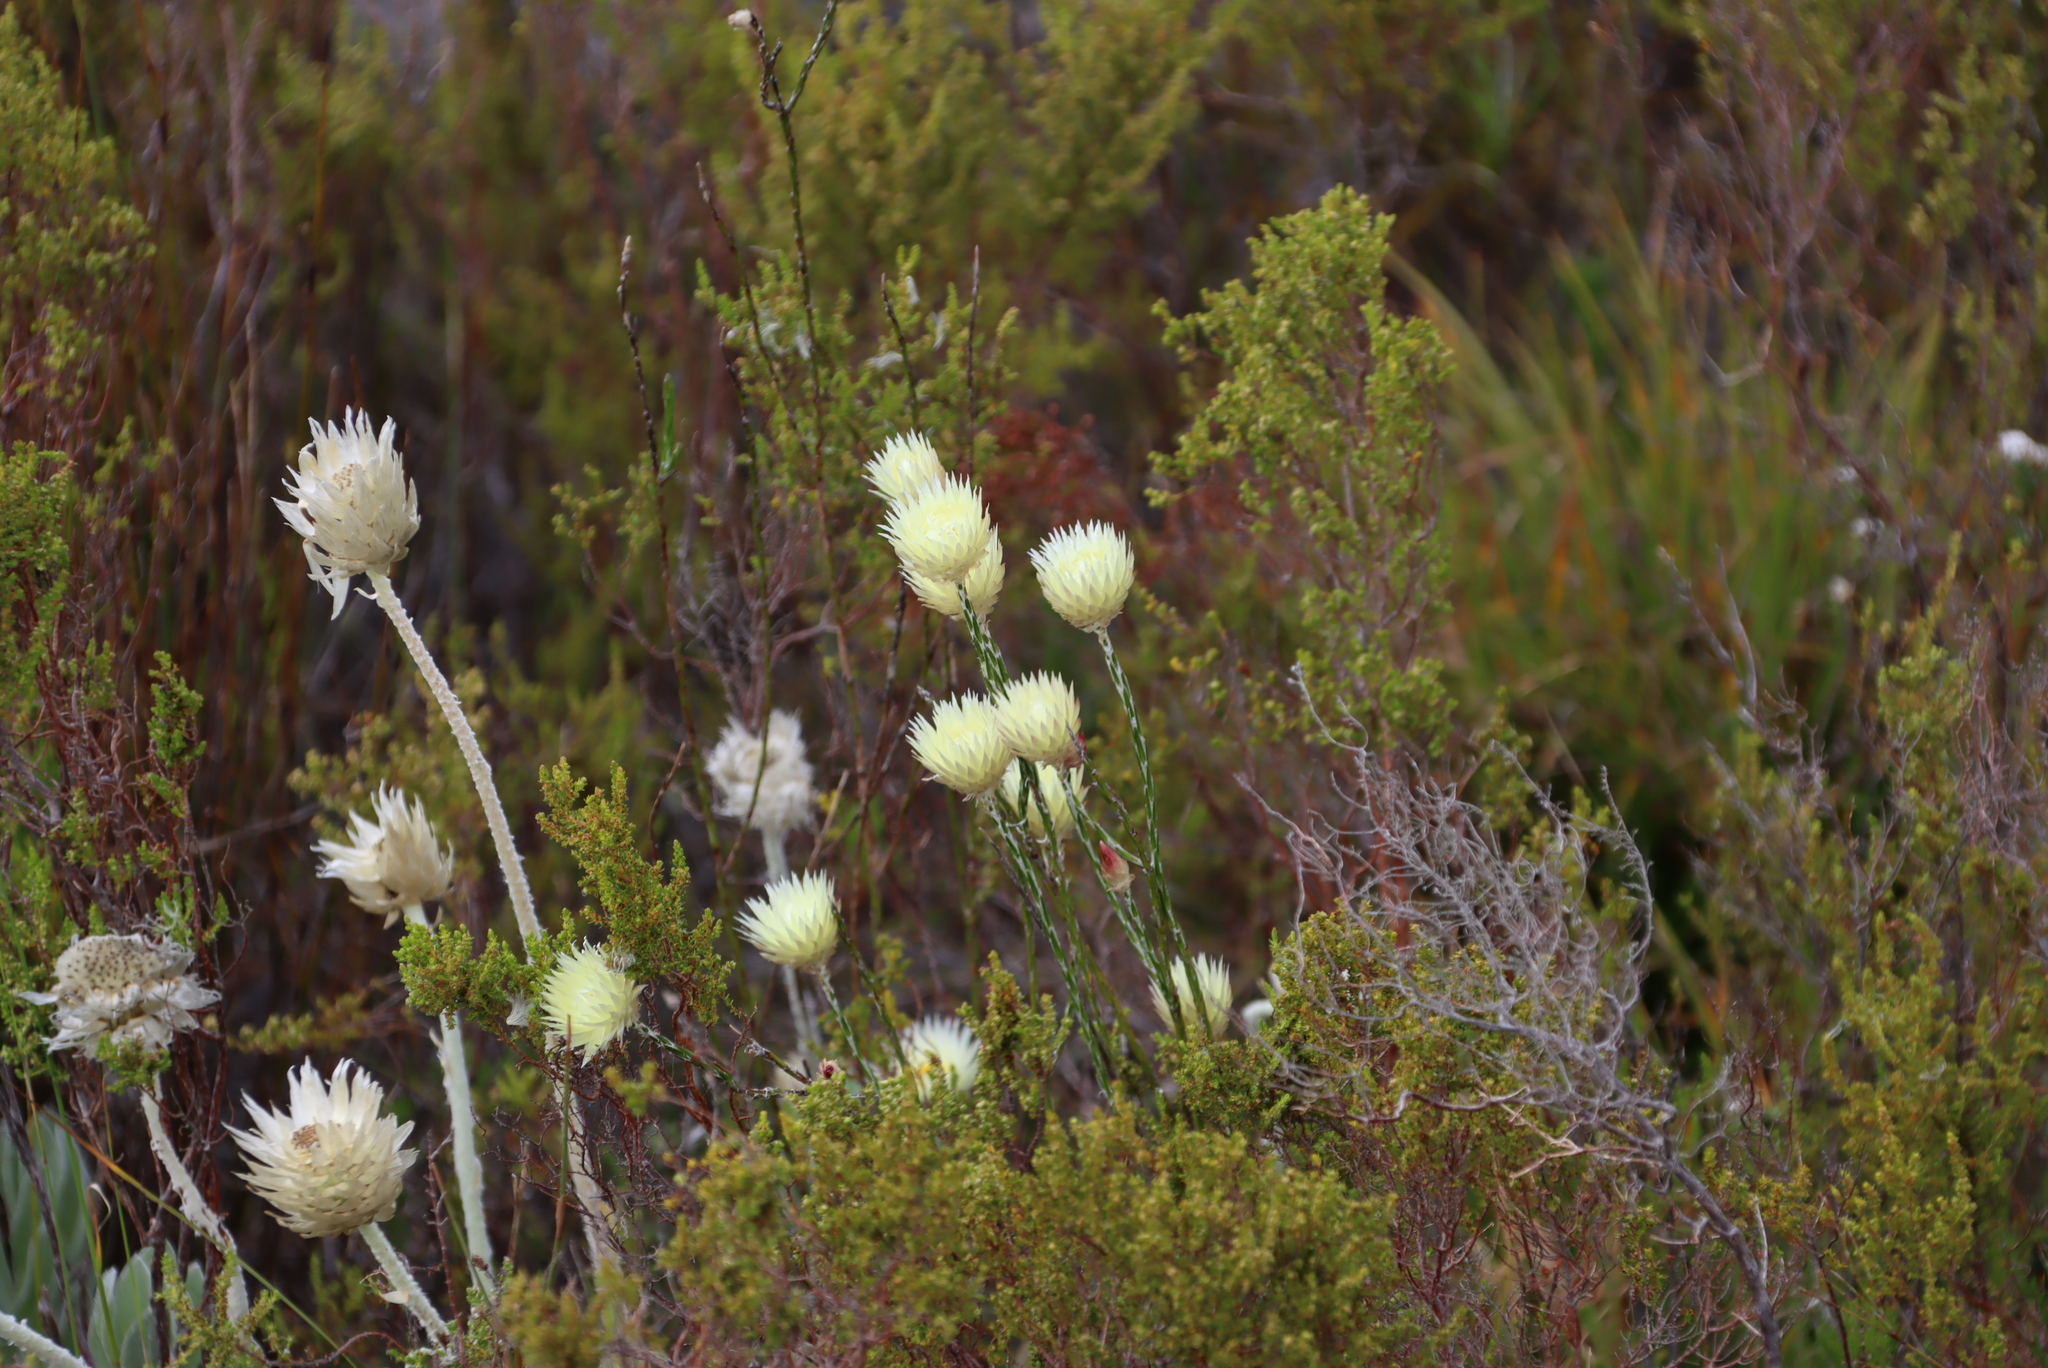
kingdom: Plantae
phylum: Tracheophyta
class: Magnoliopsida
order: Asterales
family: Asteraceae
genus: Edmondia
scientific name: Edmondia sesamoides
